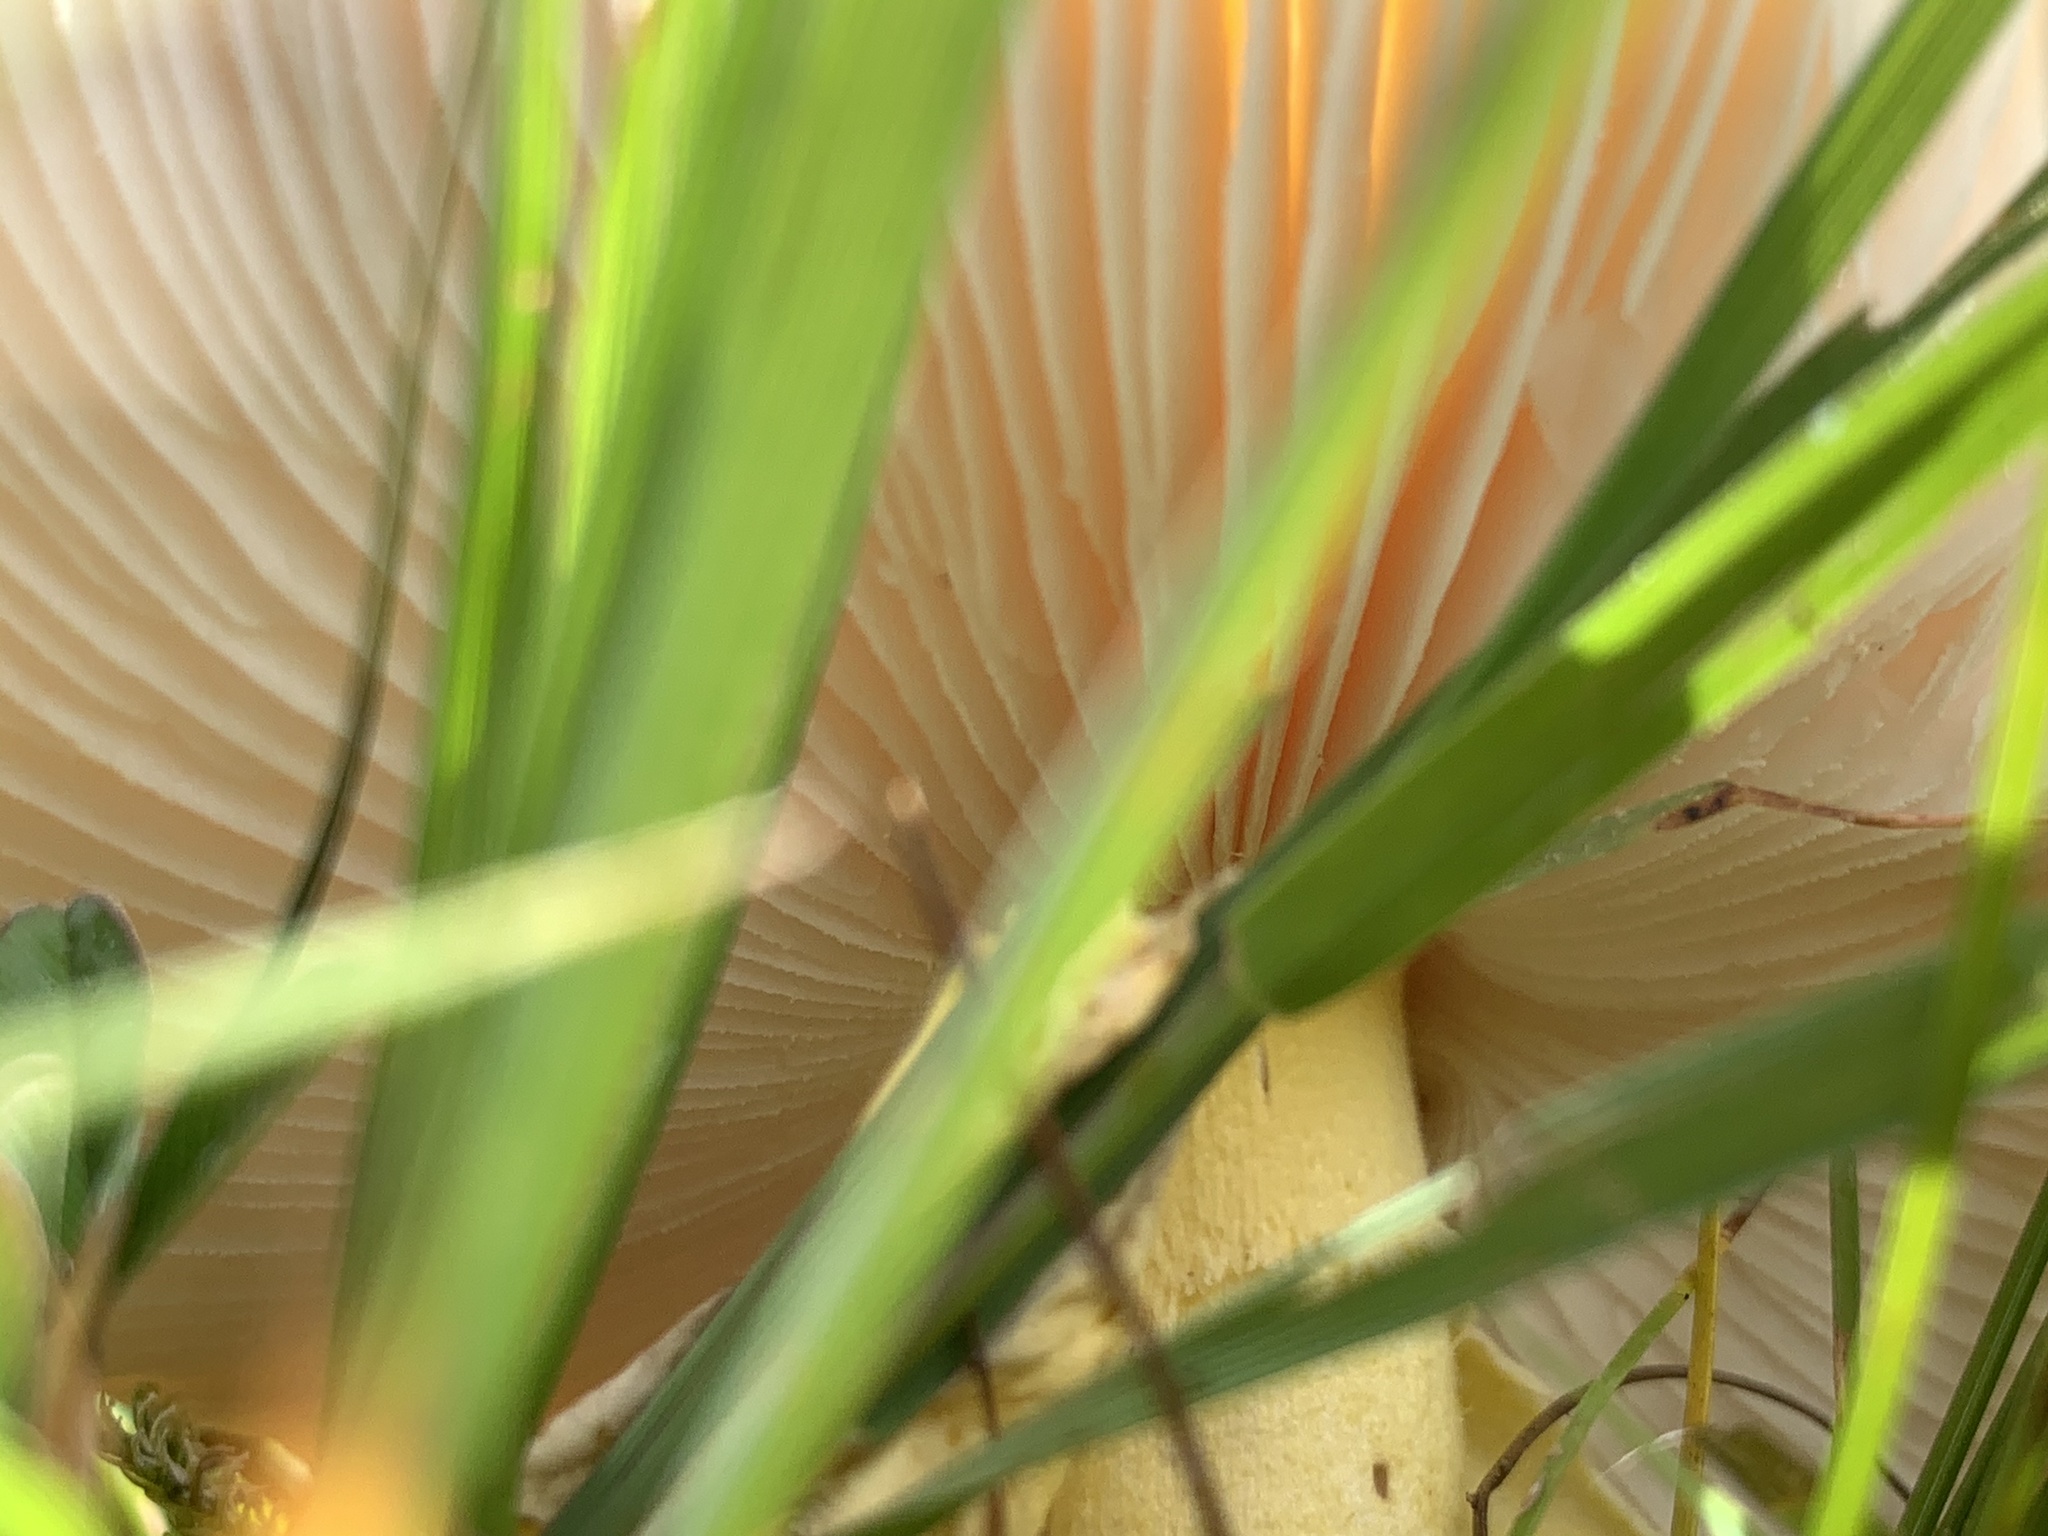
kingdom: Fungi
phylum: Basidiomycota
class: Agaricomycetes
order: Agaricales
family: Amanitaceae
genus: Amanita
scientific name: Amanita flavorubens
